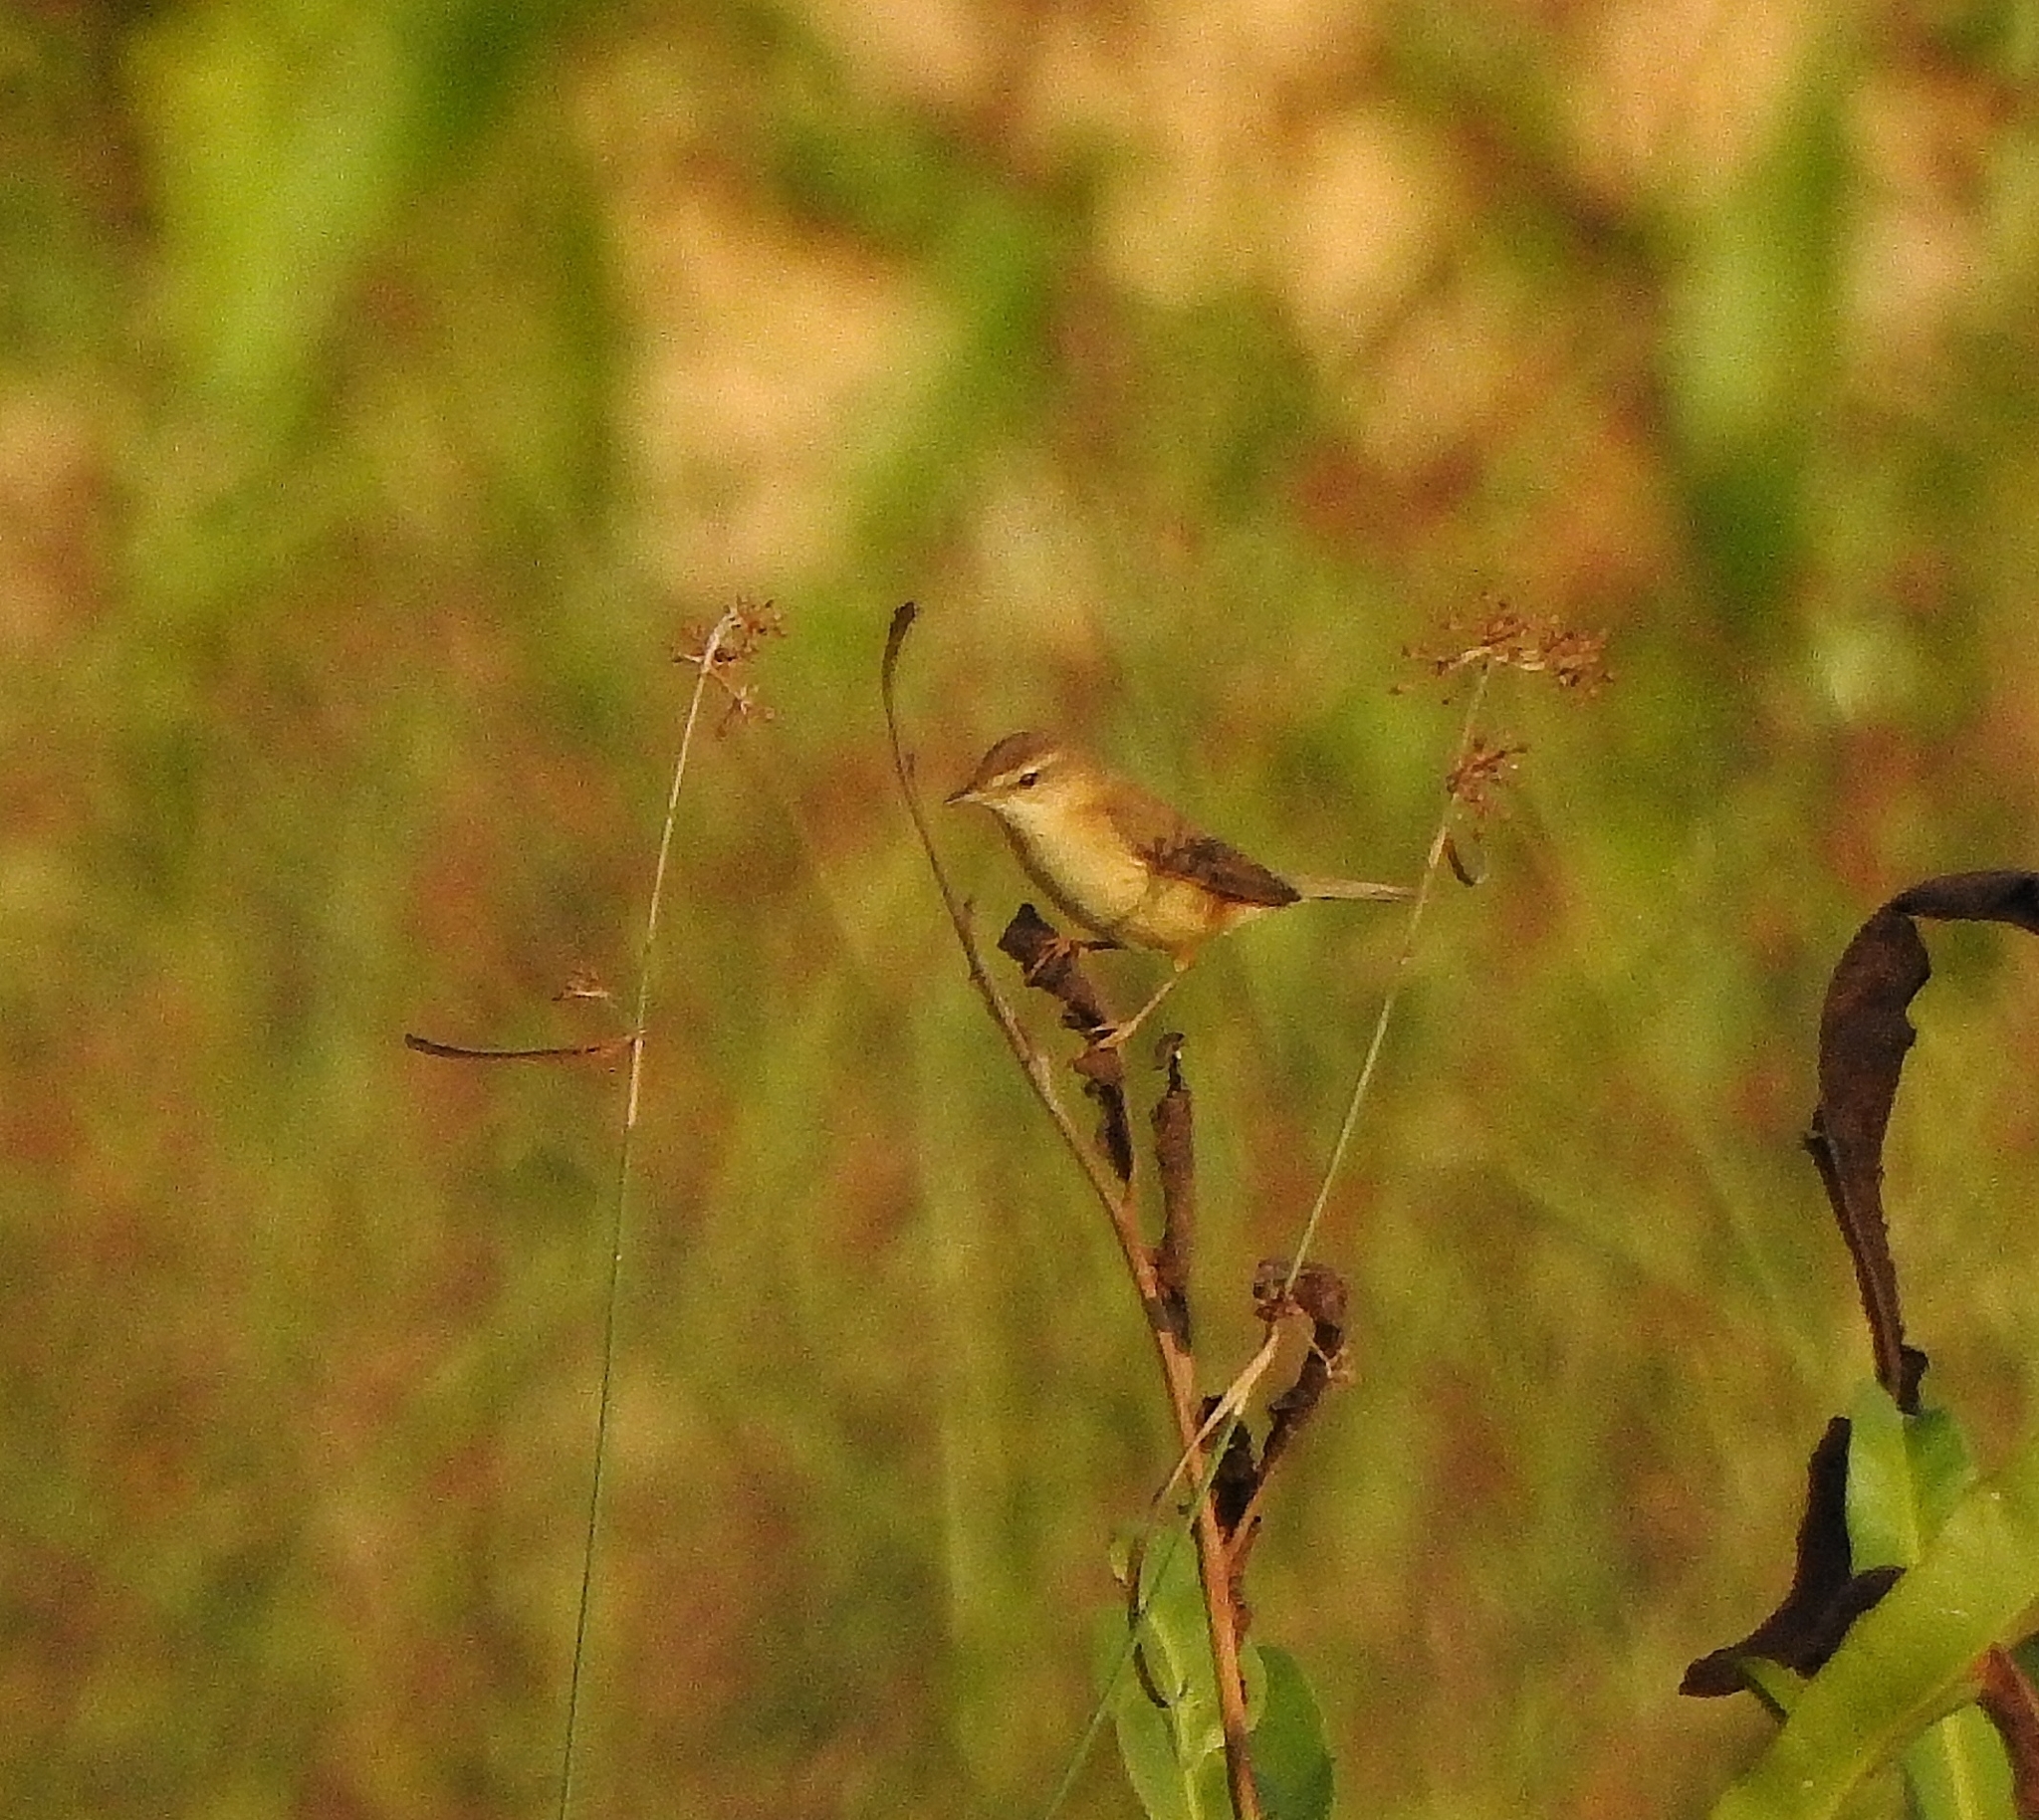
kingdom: Animalia
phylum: Chordata
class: Aves
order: Passeriformes
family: Acrocephalidae
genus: Acrocephalus
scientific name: Acrocephalus agricola
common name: Paddyfield warbler
